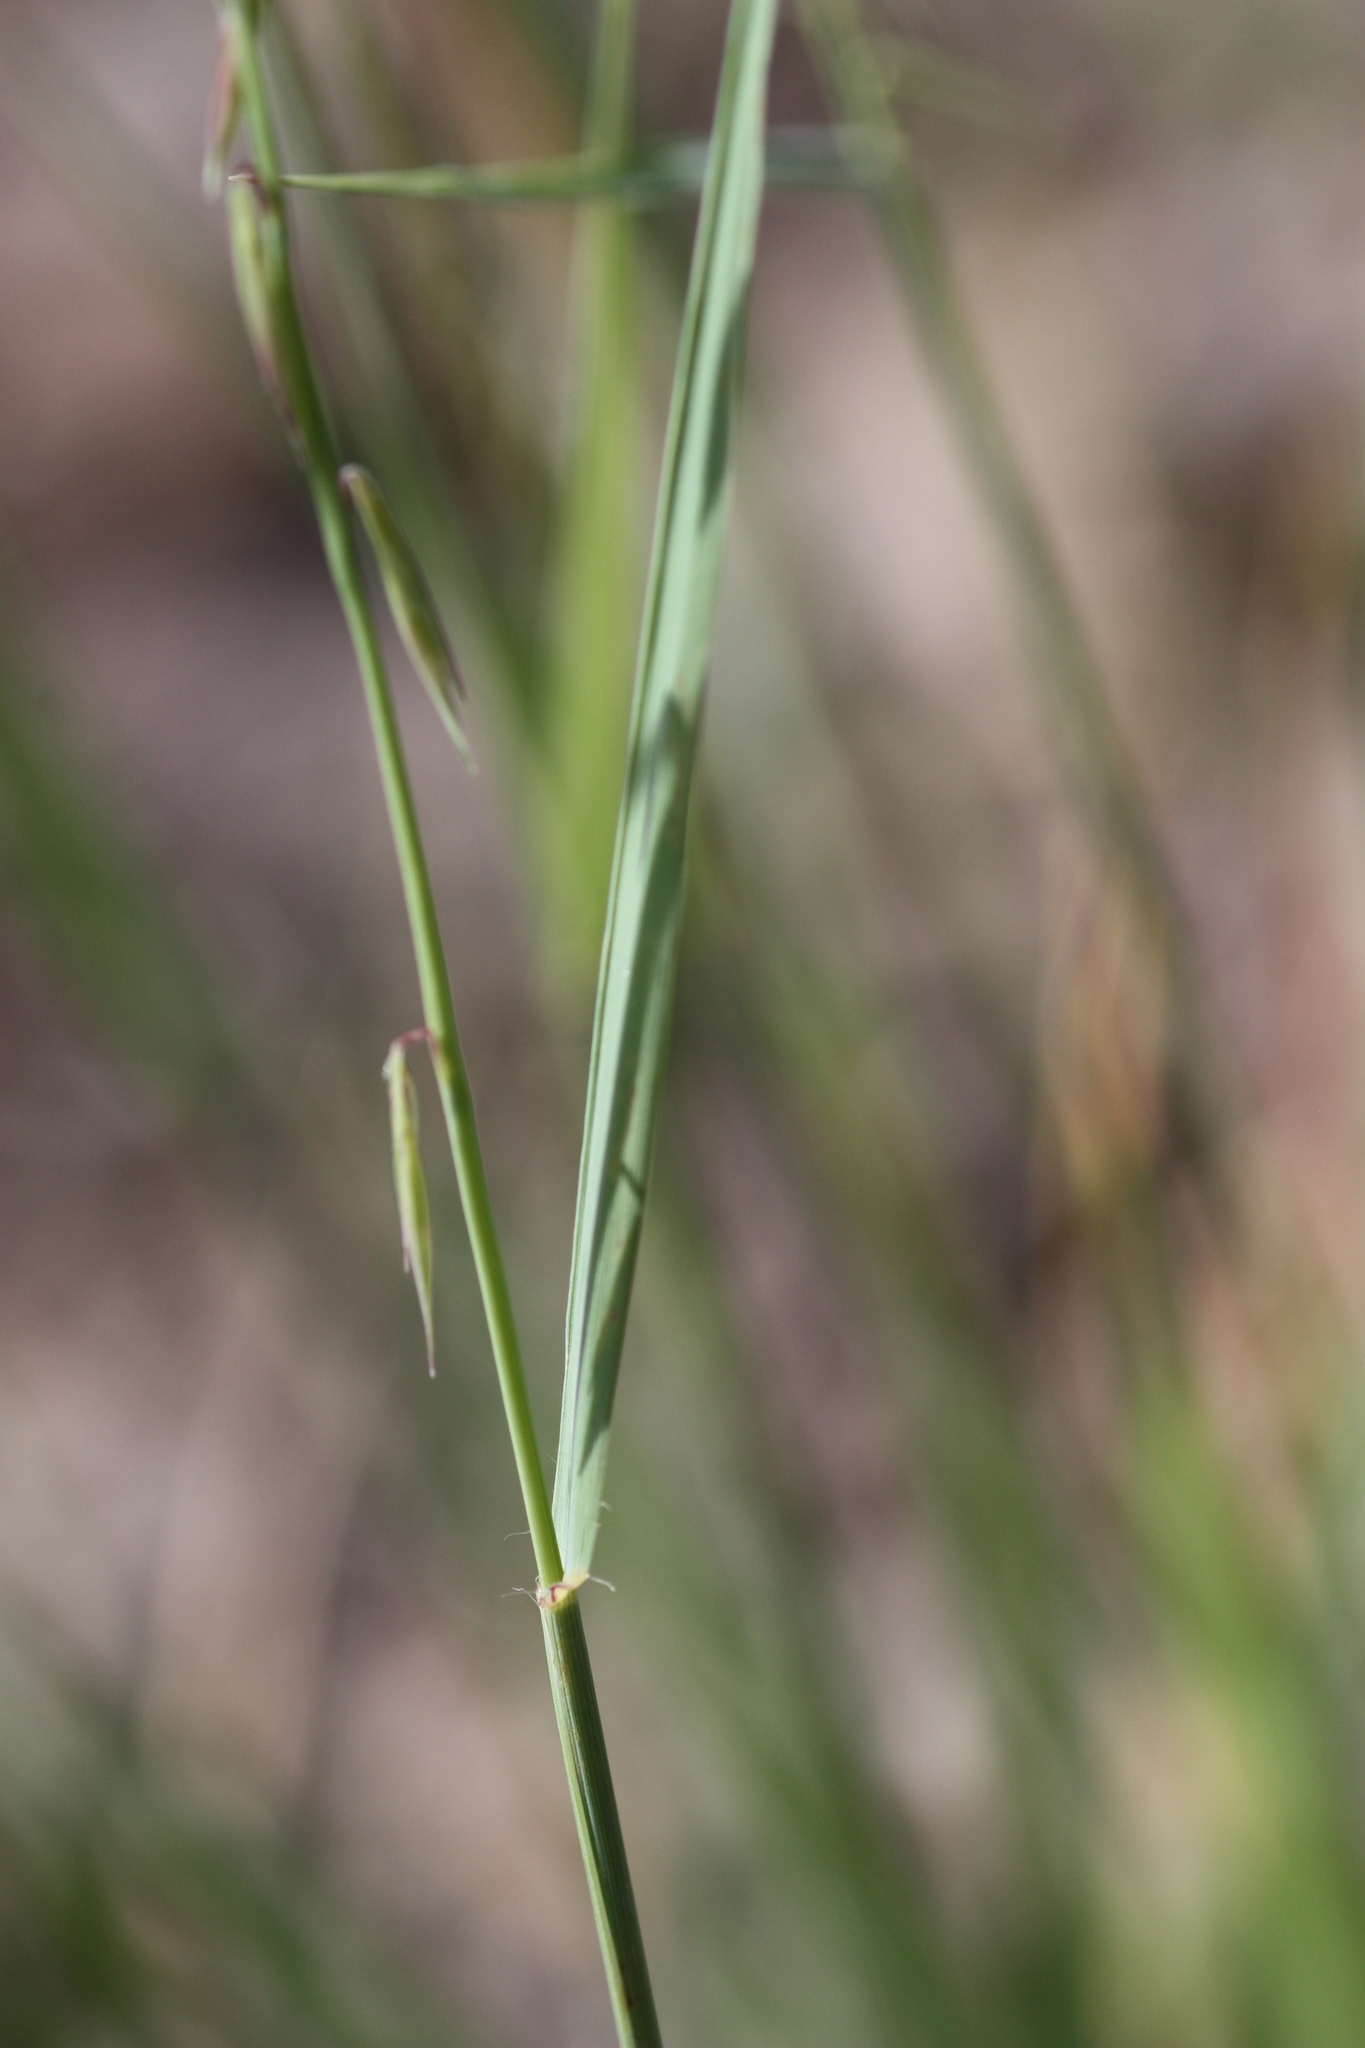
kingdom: Plantae
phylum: Tracheophyta
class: Liliopsida
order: Poales
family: Poaceae
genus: Bouteloua
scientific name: Bouteloua curtipendula
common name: Side-oats grama
